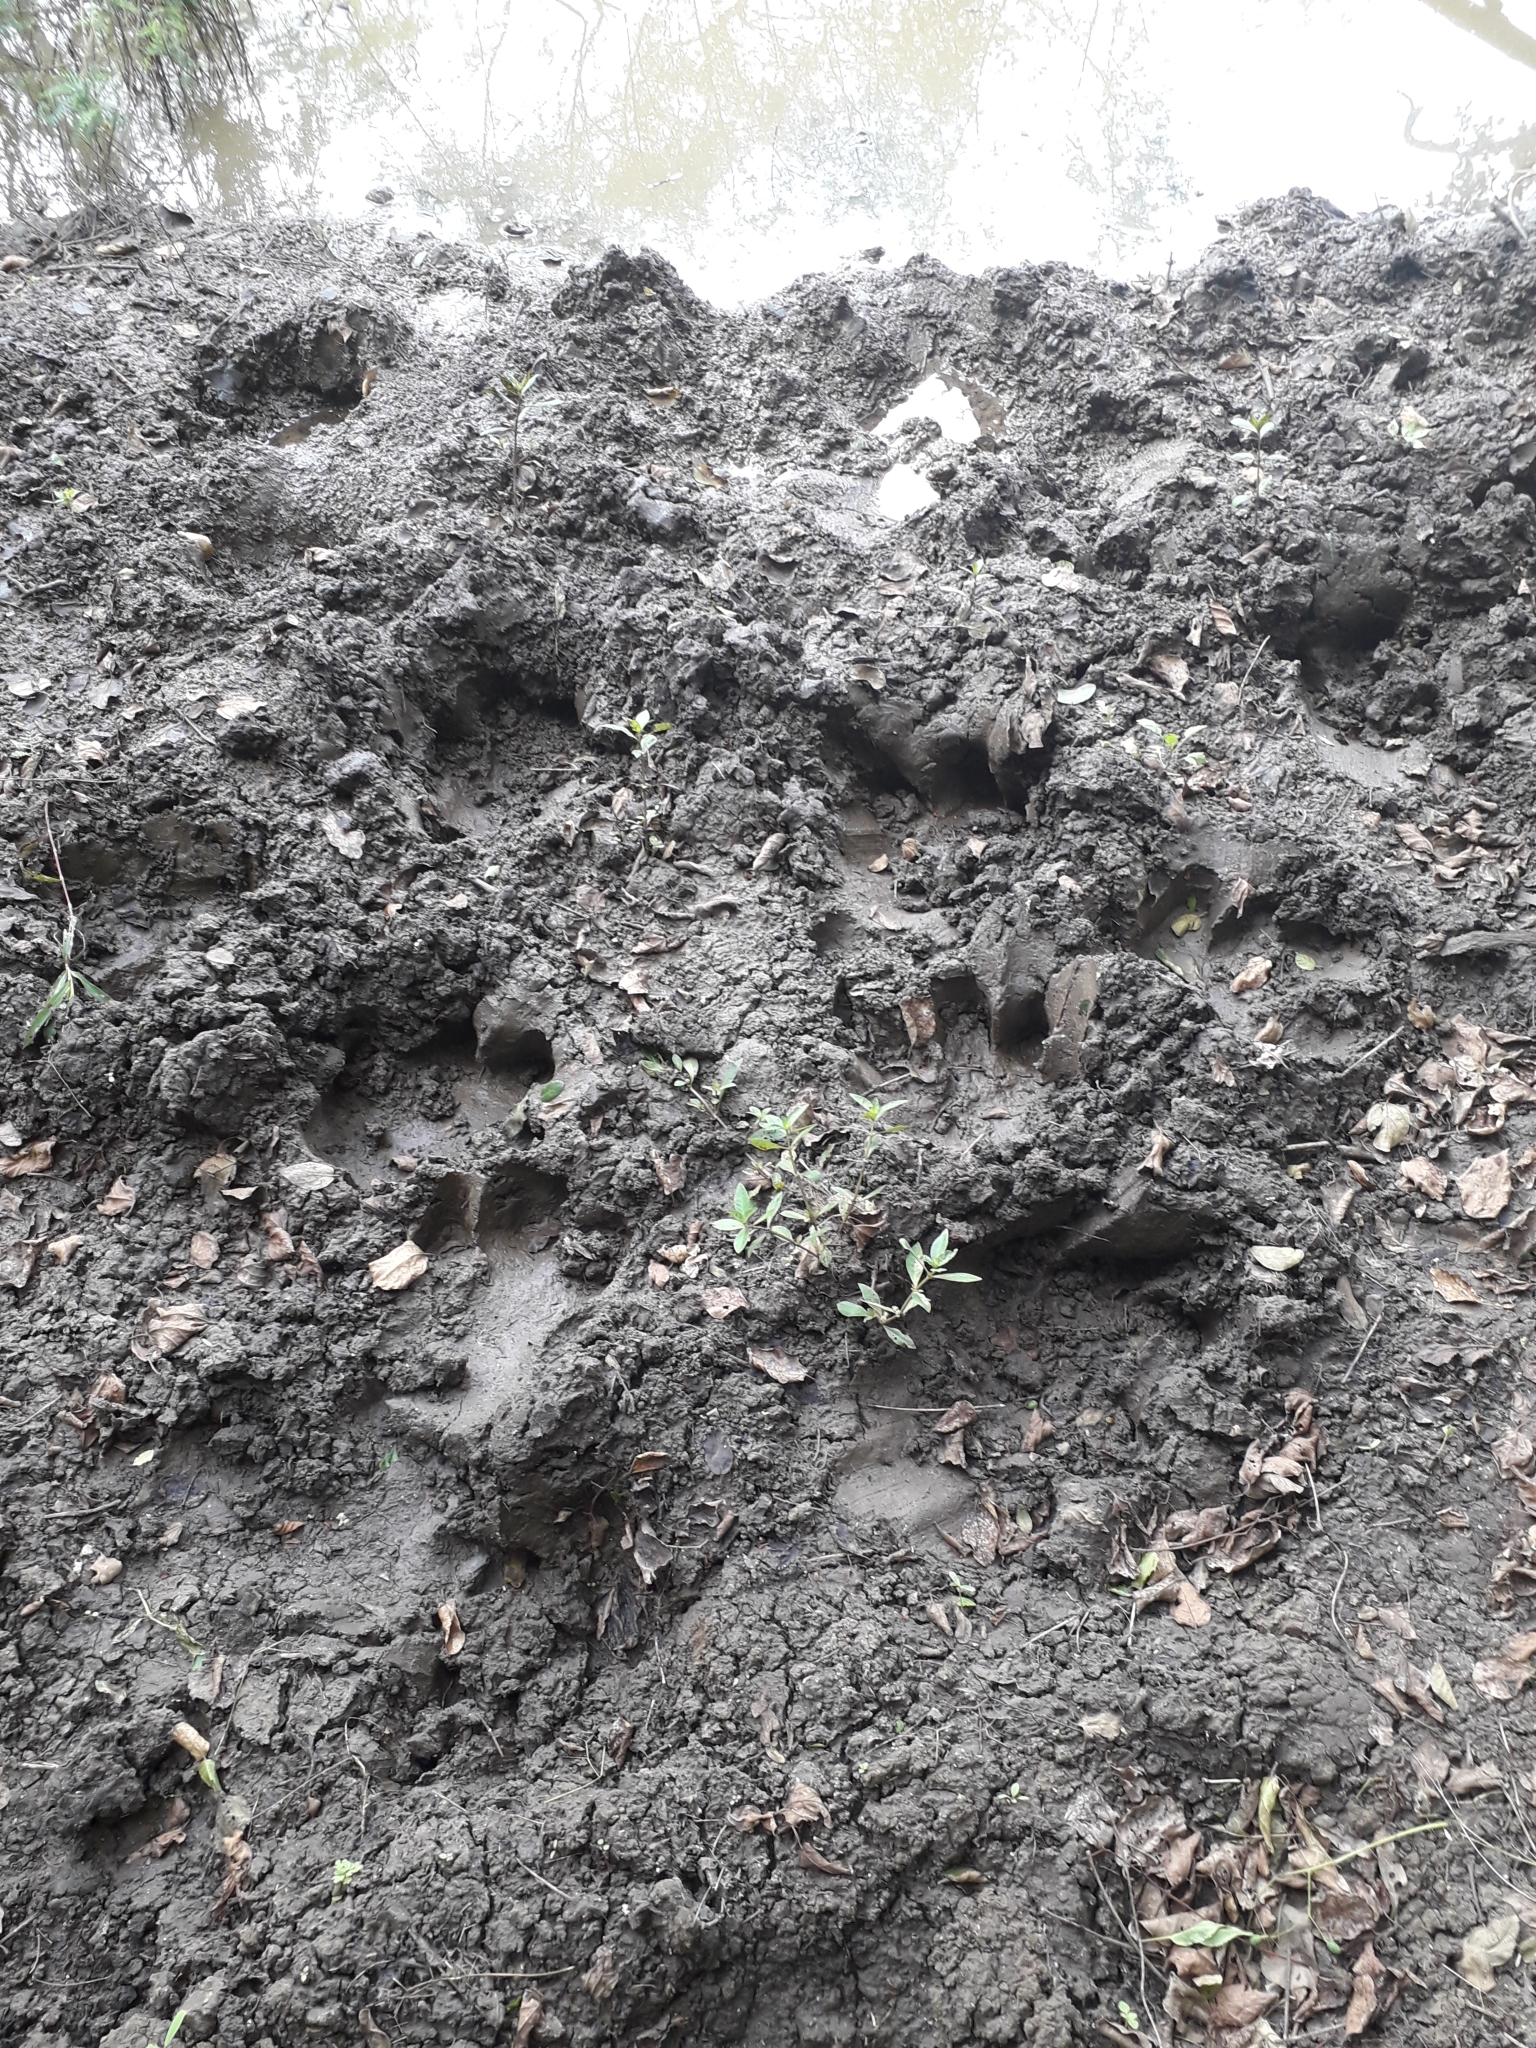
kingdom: Animalia
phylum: Chordata
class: Mammalia
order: Artiodactyla
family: Hippopotamidae
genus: Hippopotamus
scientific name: Hippopotamus amphibius
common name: Common hippopotamus
